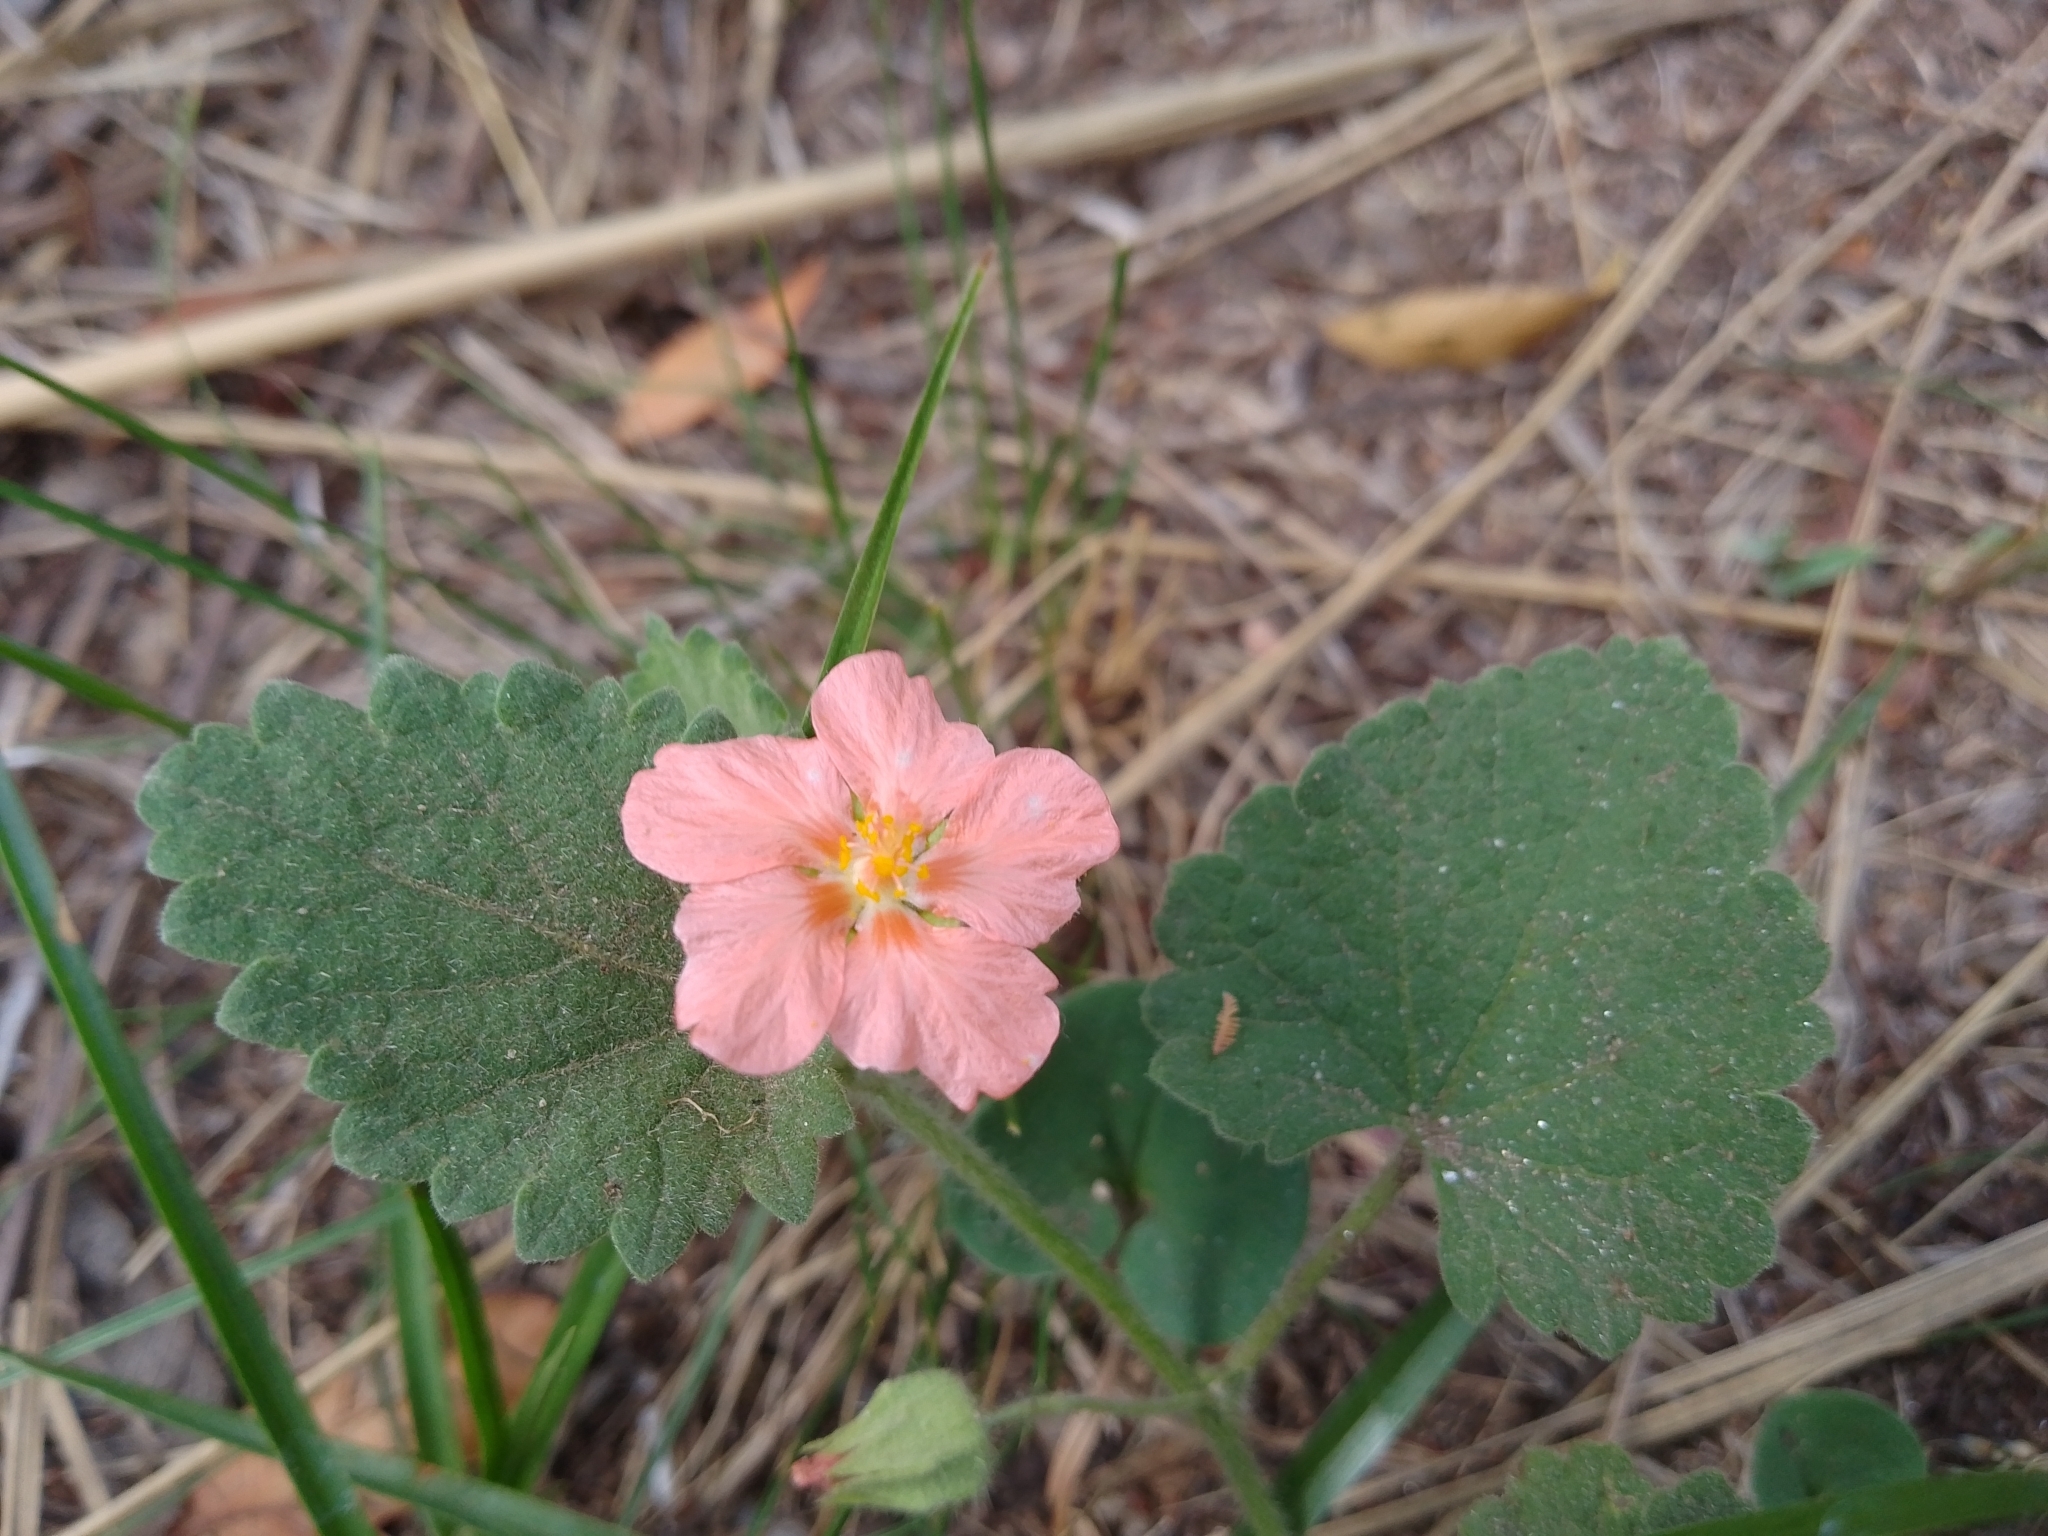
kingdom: Plantae
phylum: Tracheophyta
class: Magnoliopsida
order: Malvales
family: Malvaceae
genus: Krapovickasia
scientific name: Krapovickasia flavescens
